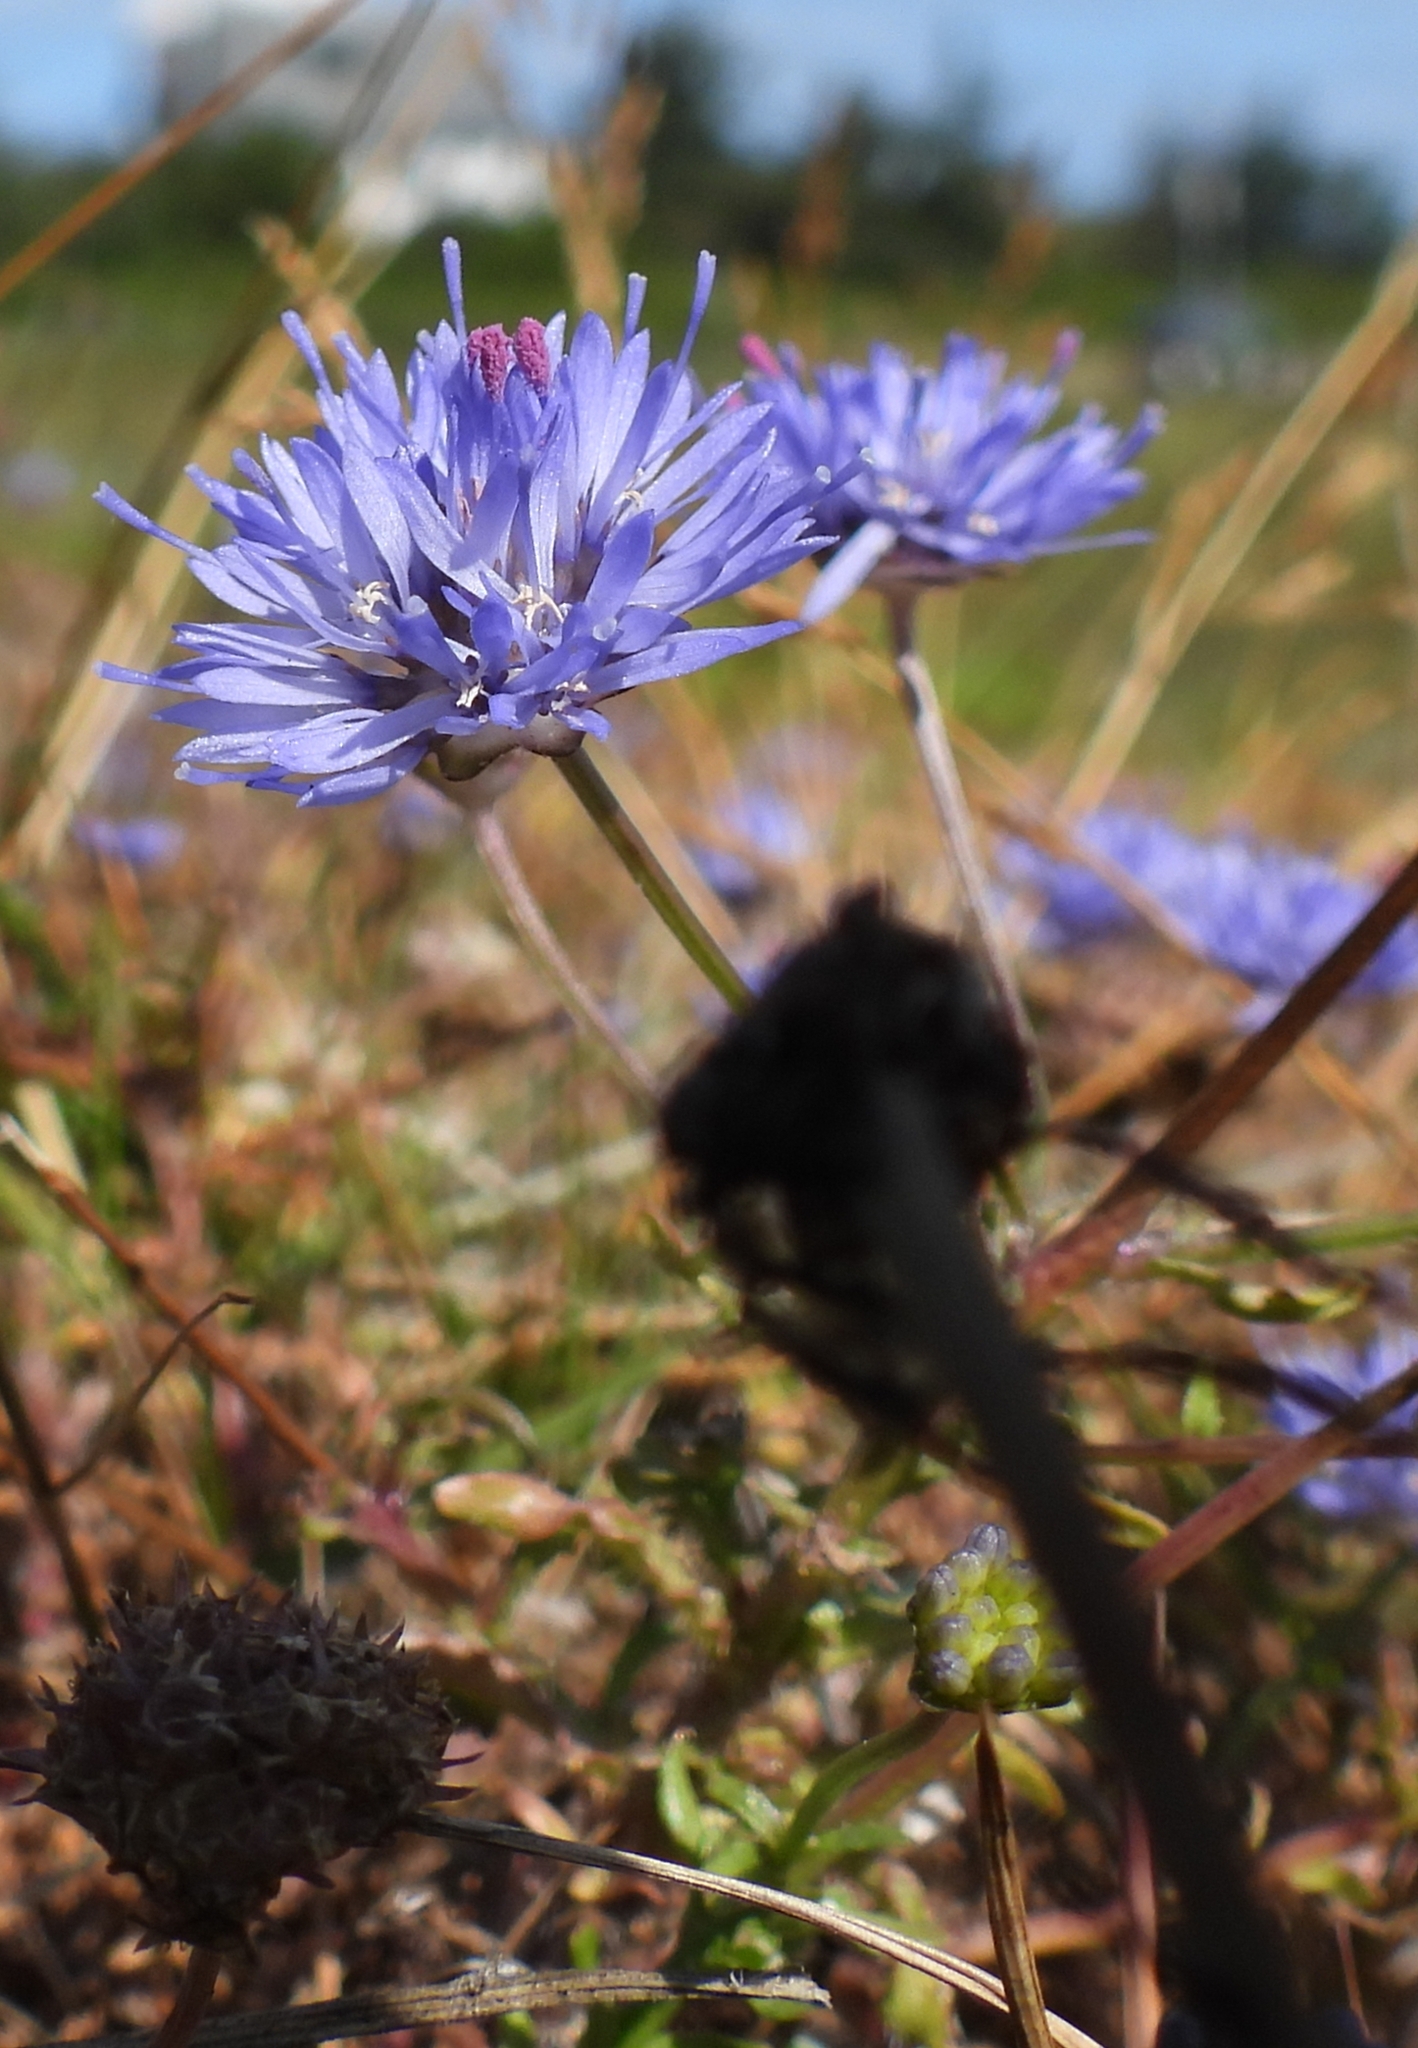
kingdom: Plantae
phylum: Tracheophyta
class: Magnoliopsida
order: Asterales
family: Campanulaceae
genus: Jasione
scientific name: Jasione montana
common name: Sheep's-bit
